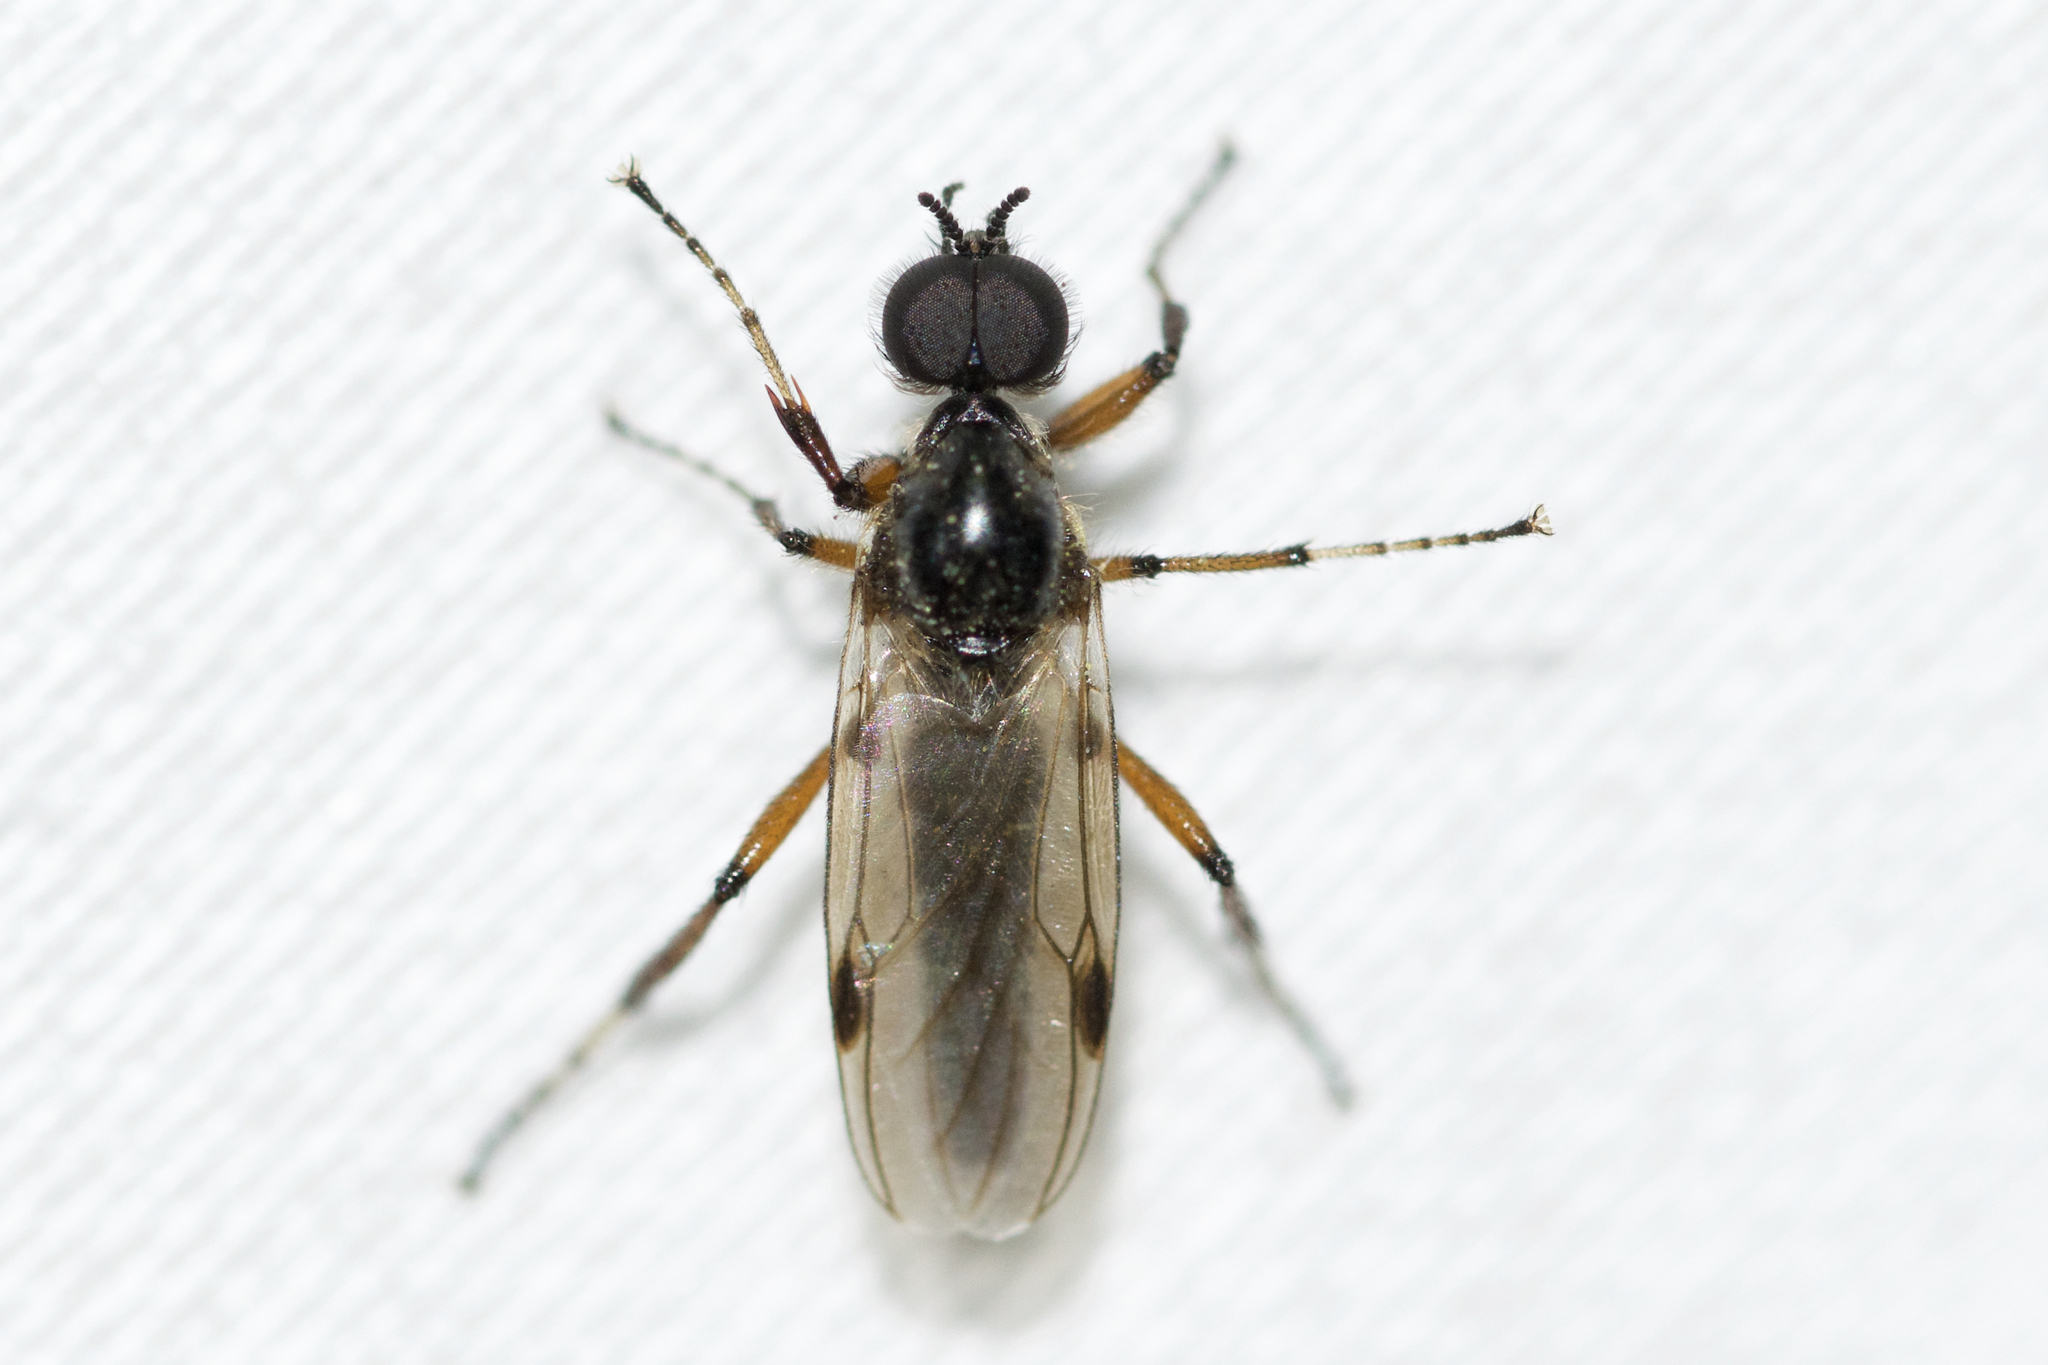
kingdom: Animalia
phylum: Arthropoda
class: Insecta
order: Diptera
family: Bibionidae
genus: Bibio
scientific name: Bibio articulatus
